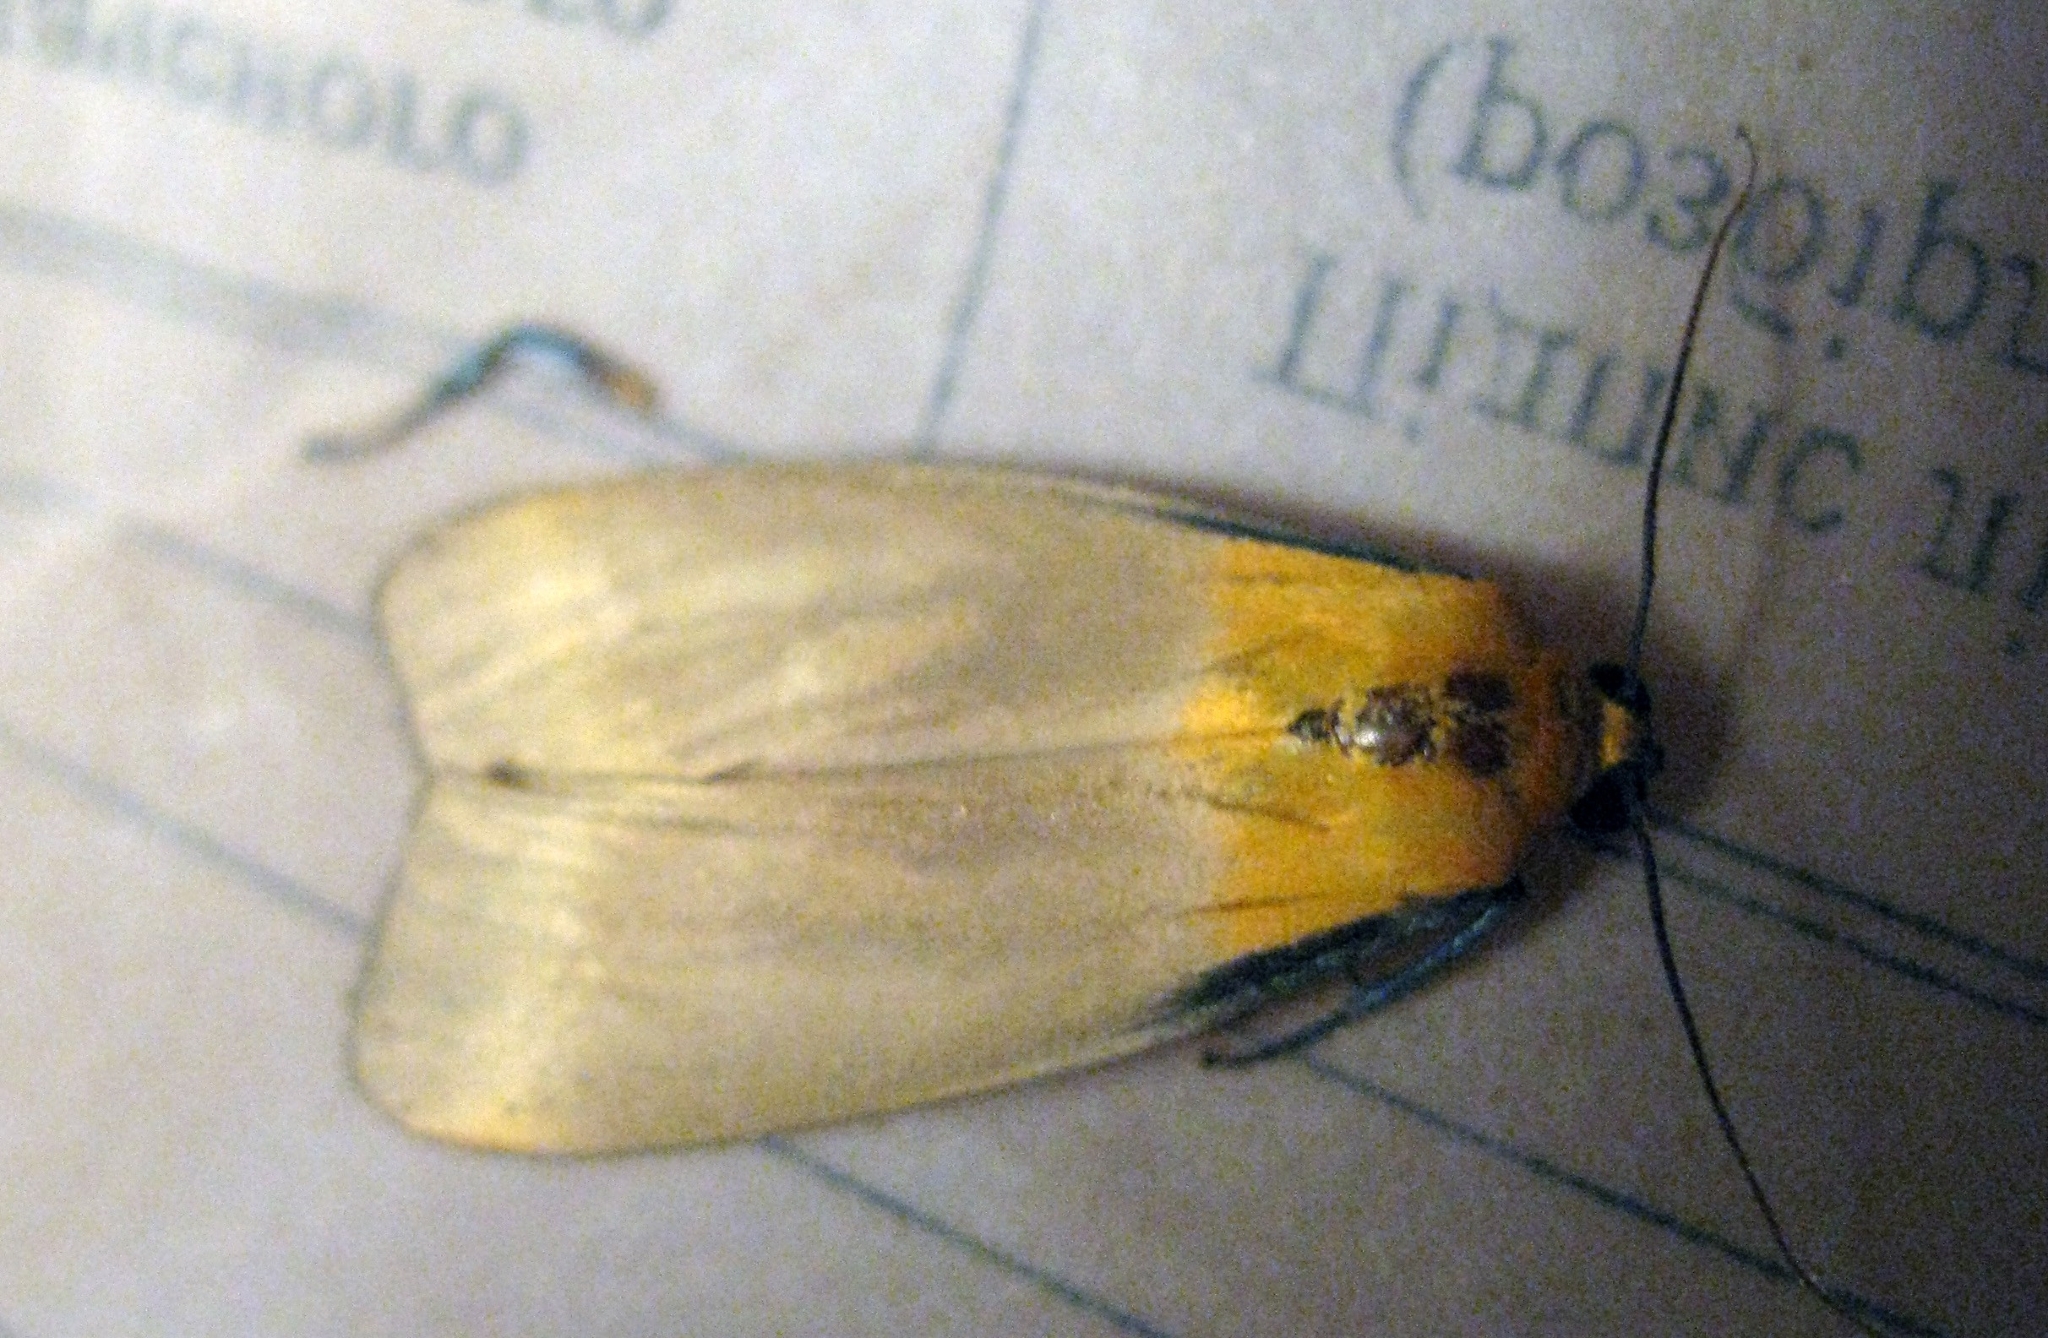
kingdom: Animalia
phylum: Arthropoda
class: Insecta
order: Lepidoptera
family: Erebidae
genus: Lithosia
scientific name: Lithosia quadra
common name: Four-spotted footman
